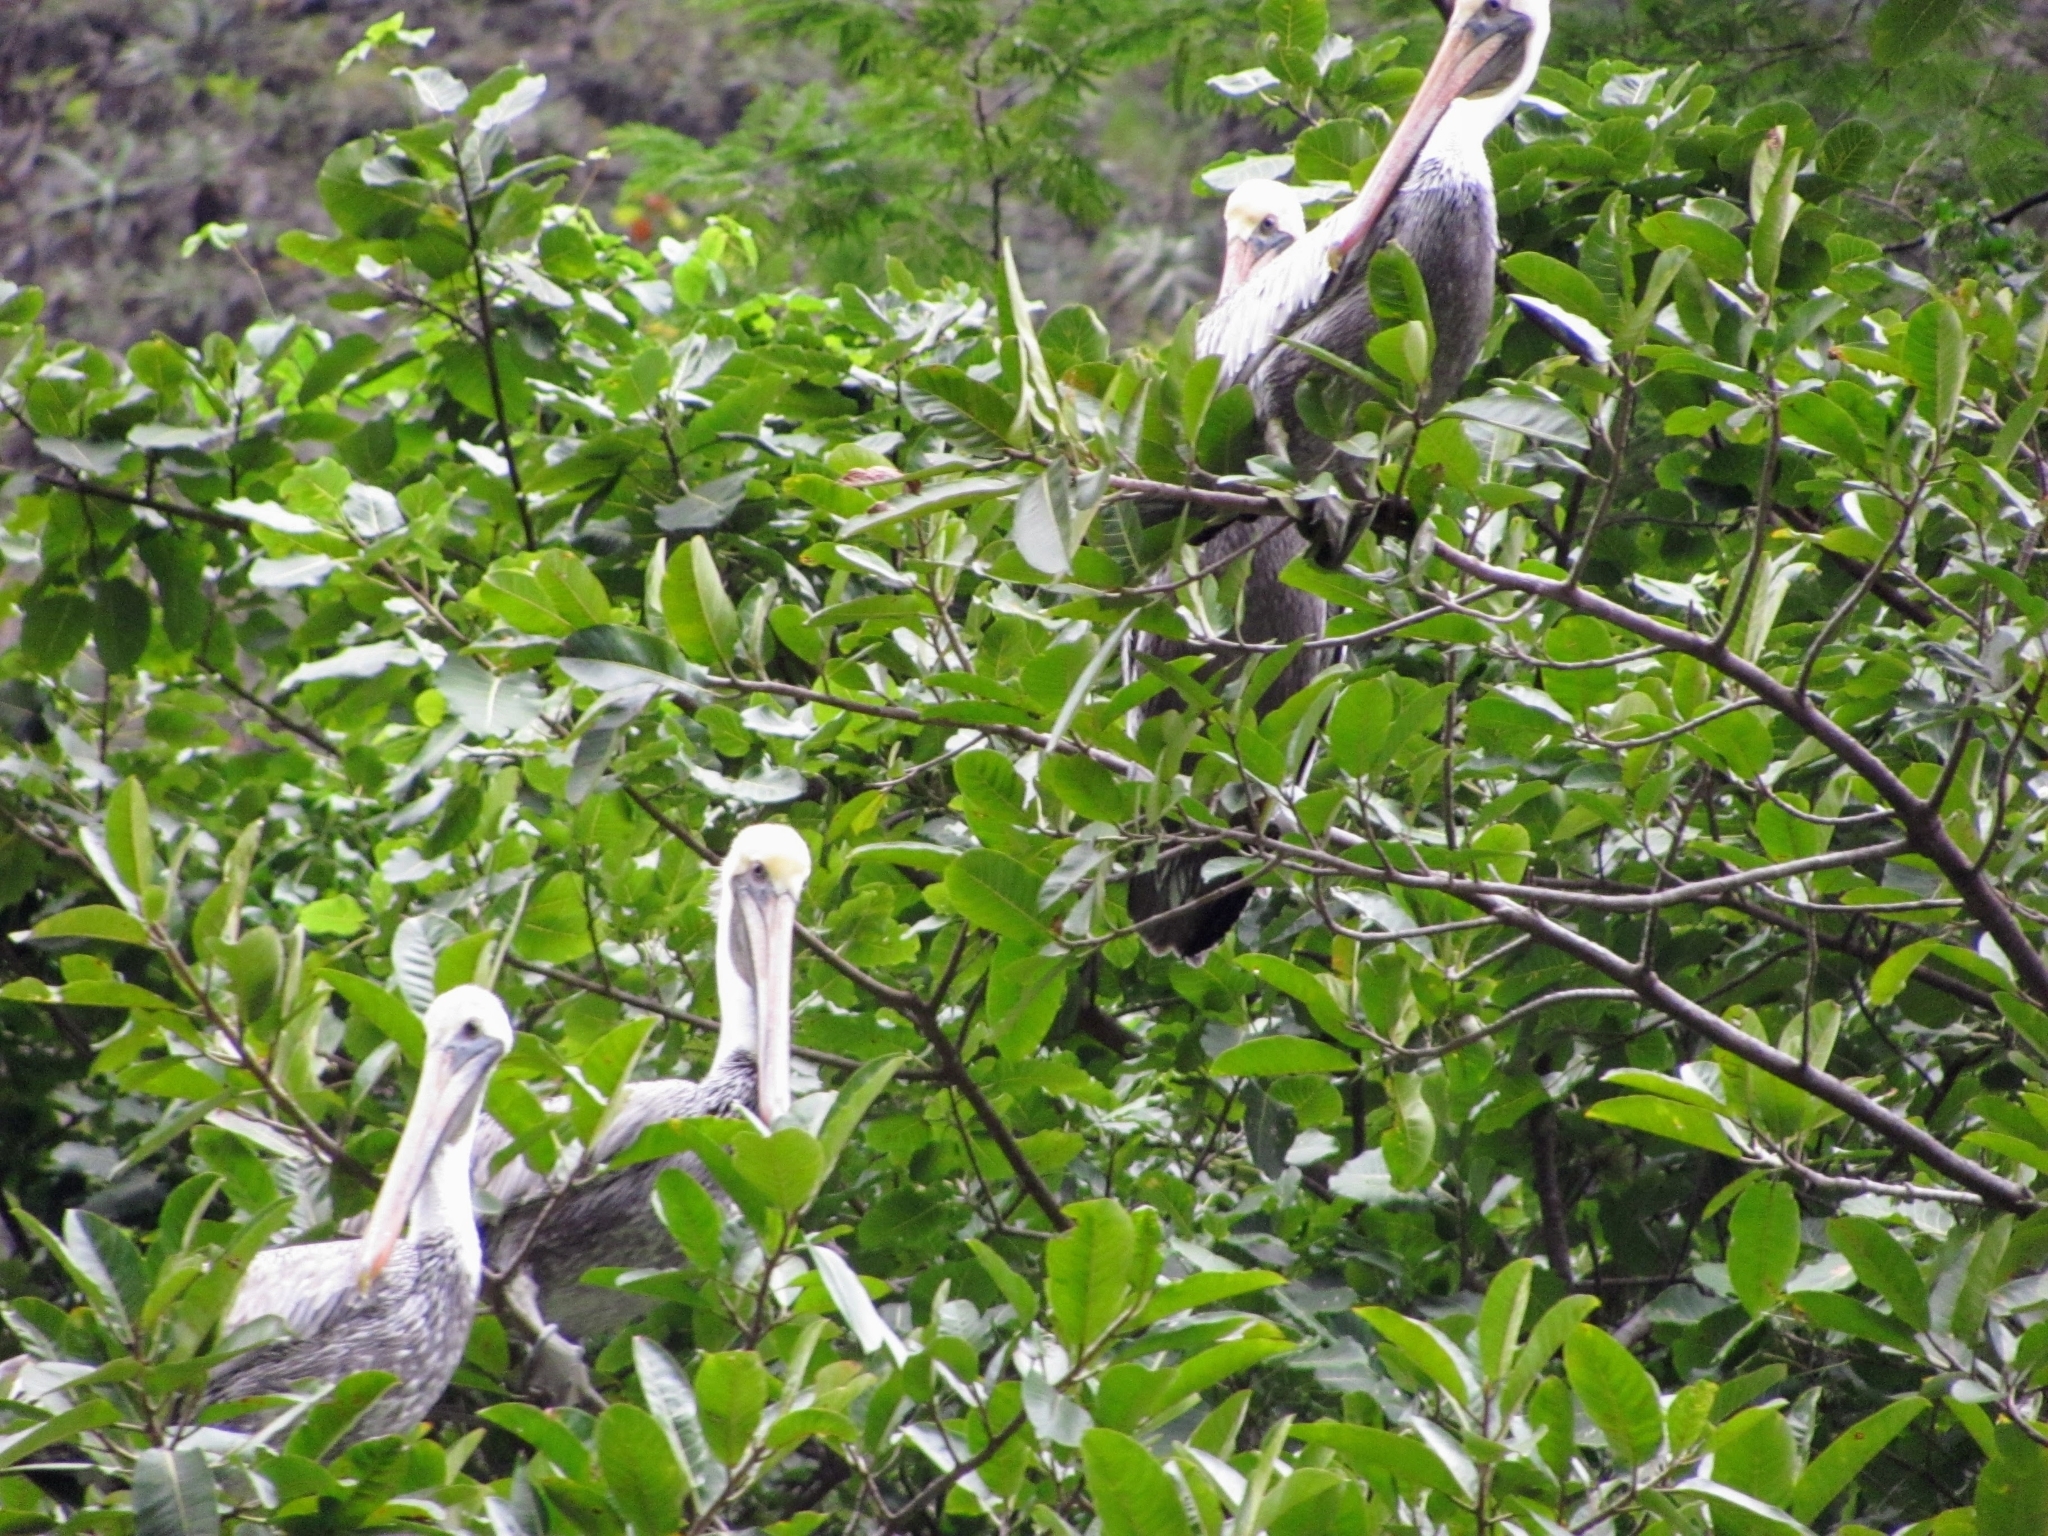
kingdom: Animalia
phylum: Chordata
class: Aves
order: Pelecaniformes
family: Pelecanidae
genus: Pelecanus
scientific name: Pelecanus occidentalis
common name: Brown pelican
